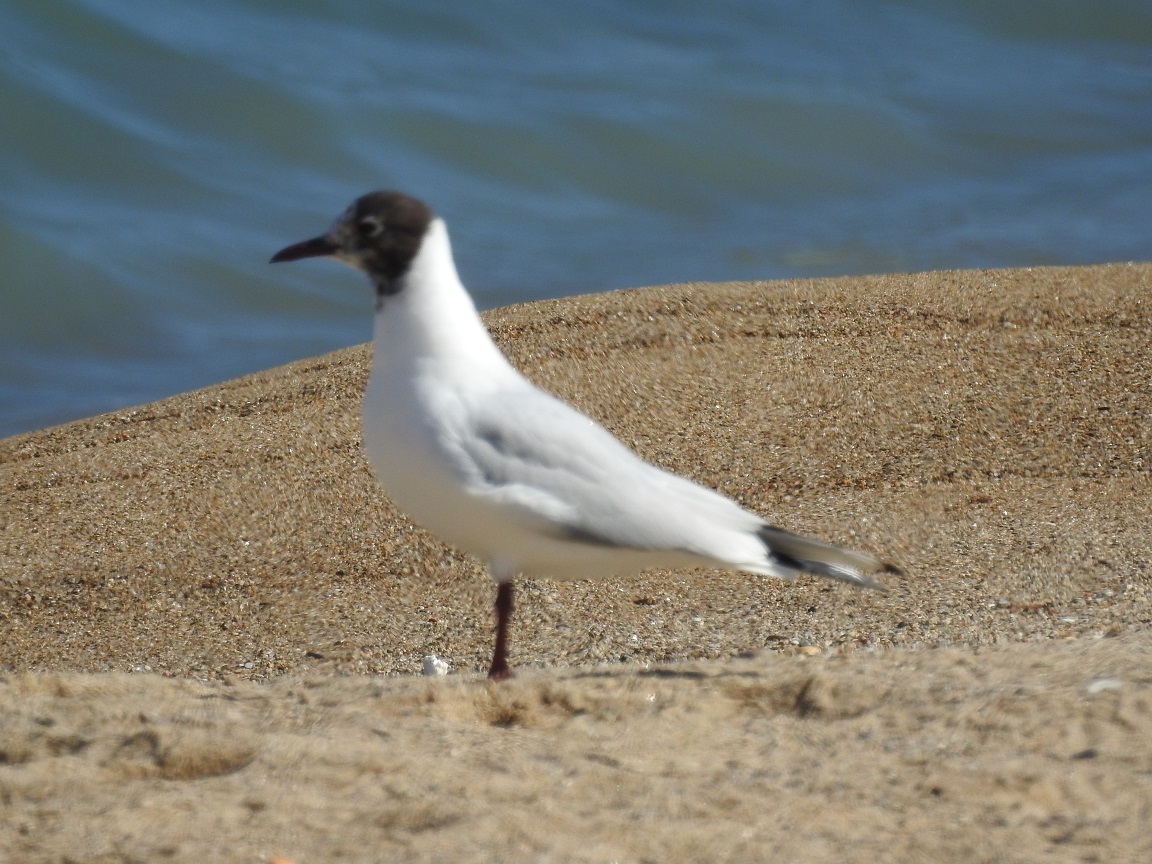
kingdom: Animalia
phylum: Chordata
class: Aves
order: Charadriiformes
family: Laridae
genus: Chroicocephalus
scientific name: Chroicocephalus ridibundus
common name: Black-headed gull
